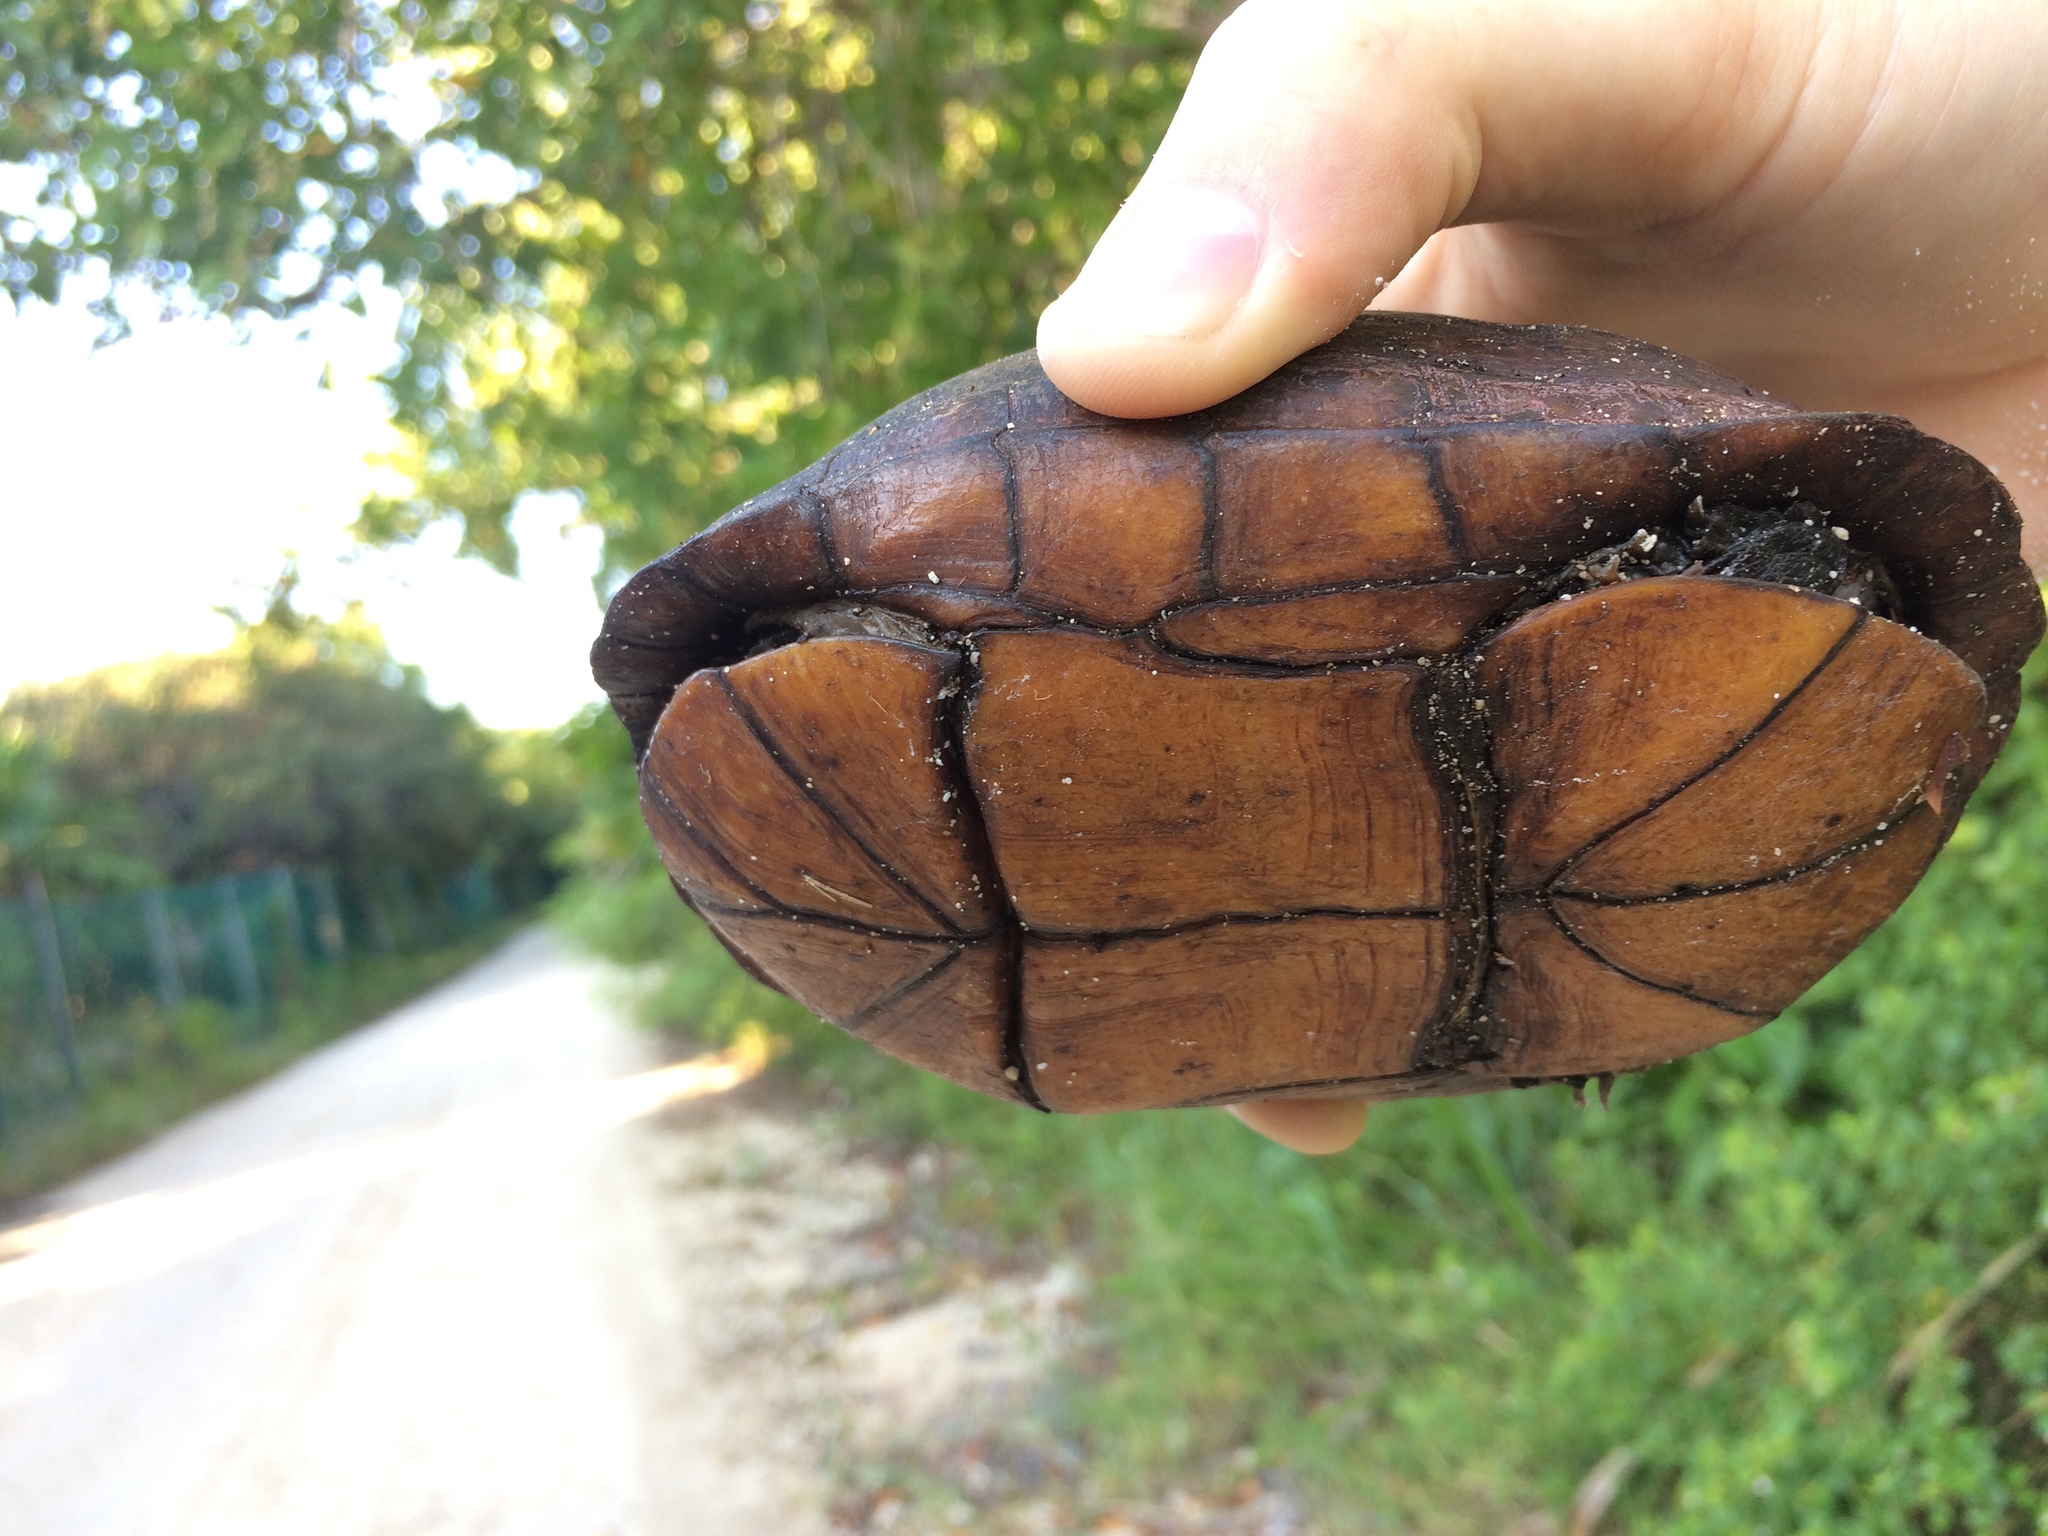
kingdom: Animalia
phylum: Chordata
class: Testudines
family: Kinosternidae
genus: Kinosternon
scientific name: Kinosternon scorpioides
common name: Scorpion mud turtle
